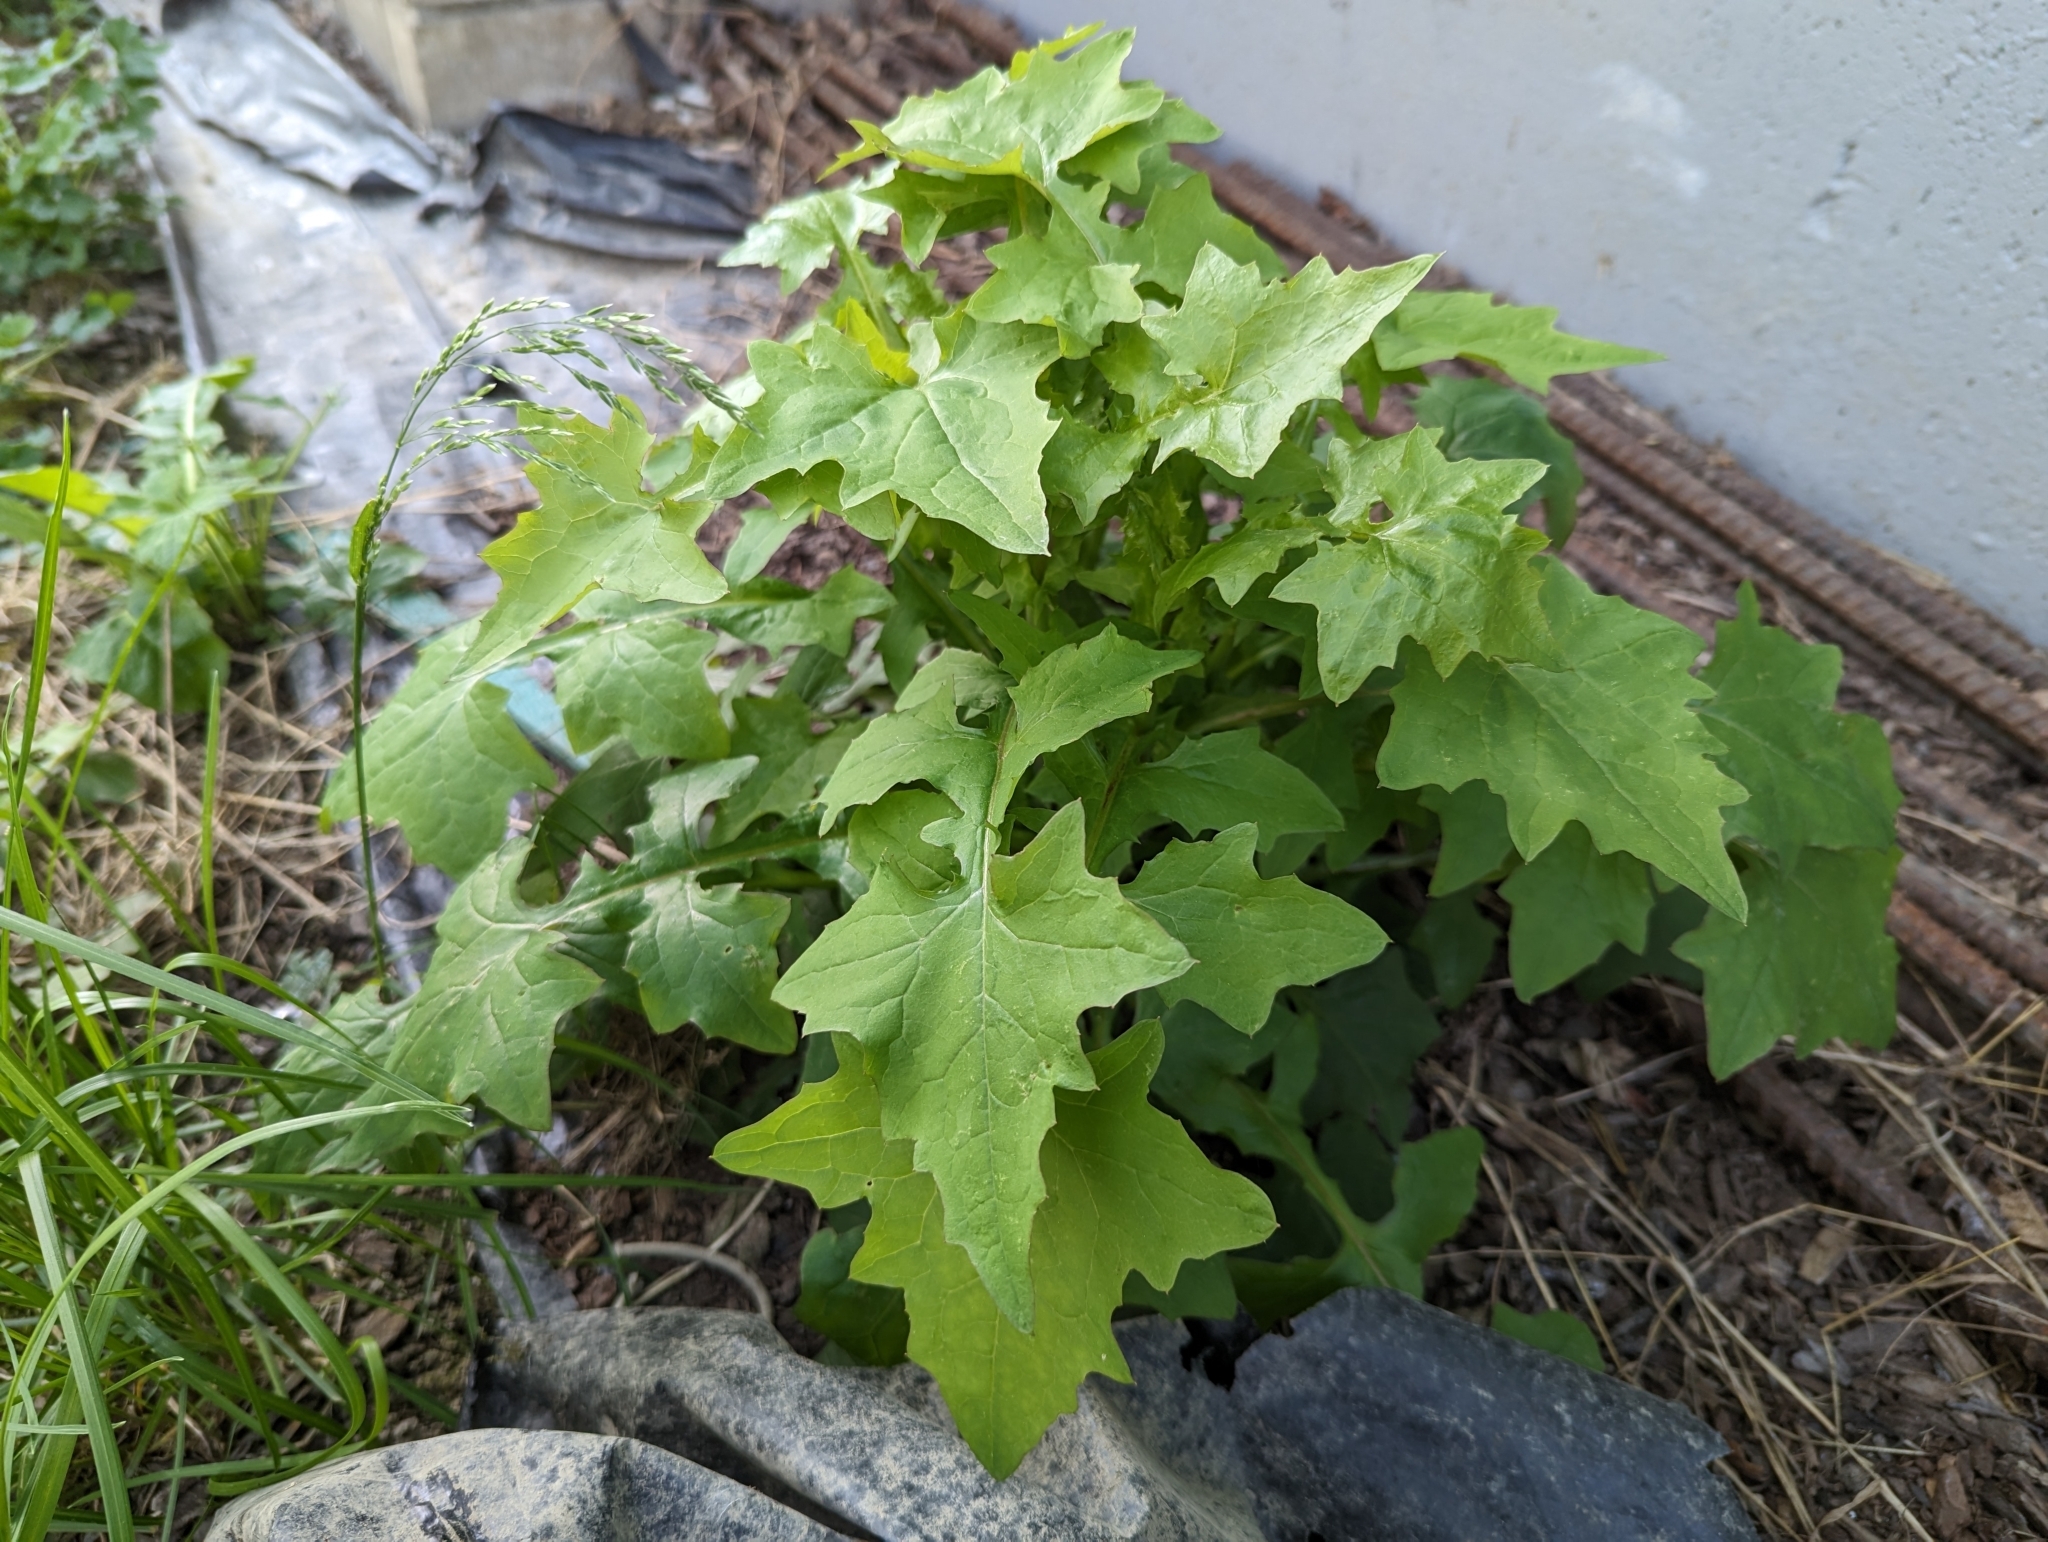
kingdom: Plantae
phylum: Tracheophyta
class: Magnoliopsida
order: Asterales
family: Asteraceae
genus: Mycelis
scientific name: Mycelis muralis
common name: Wall lettuce
